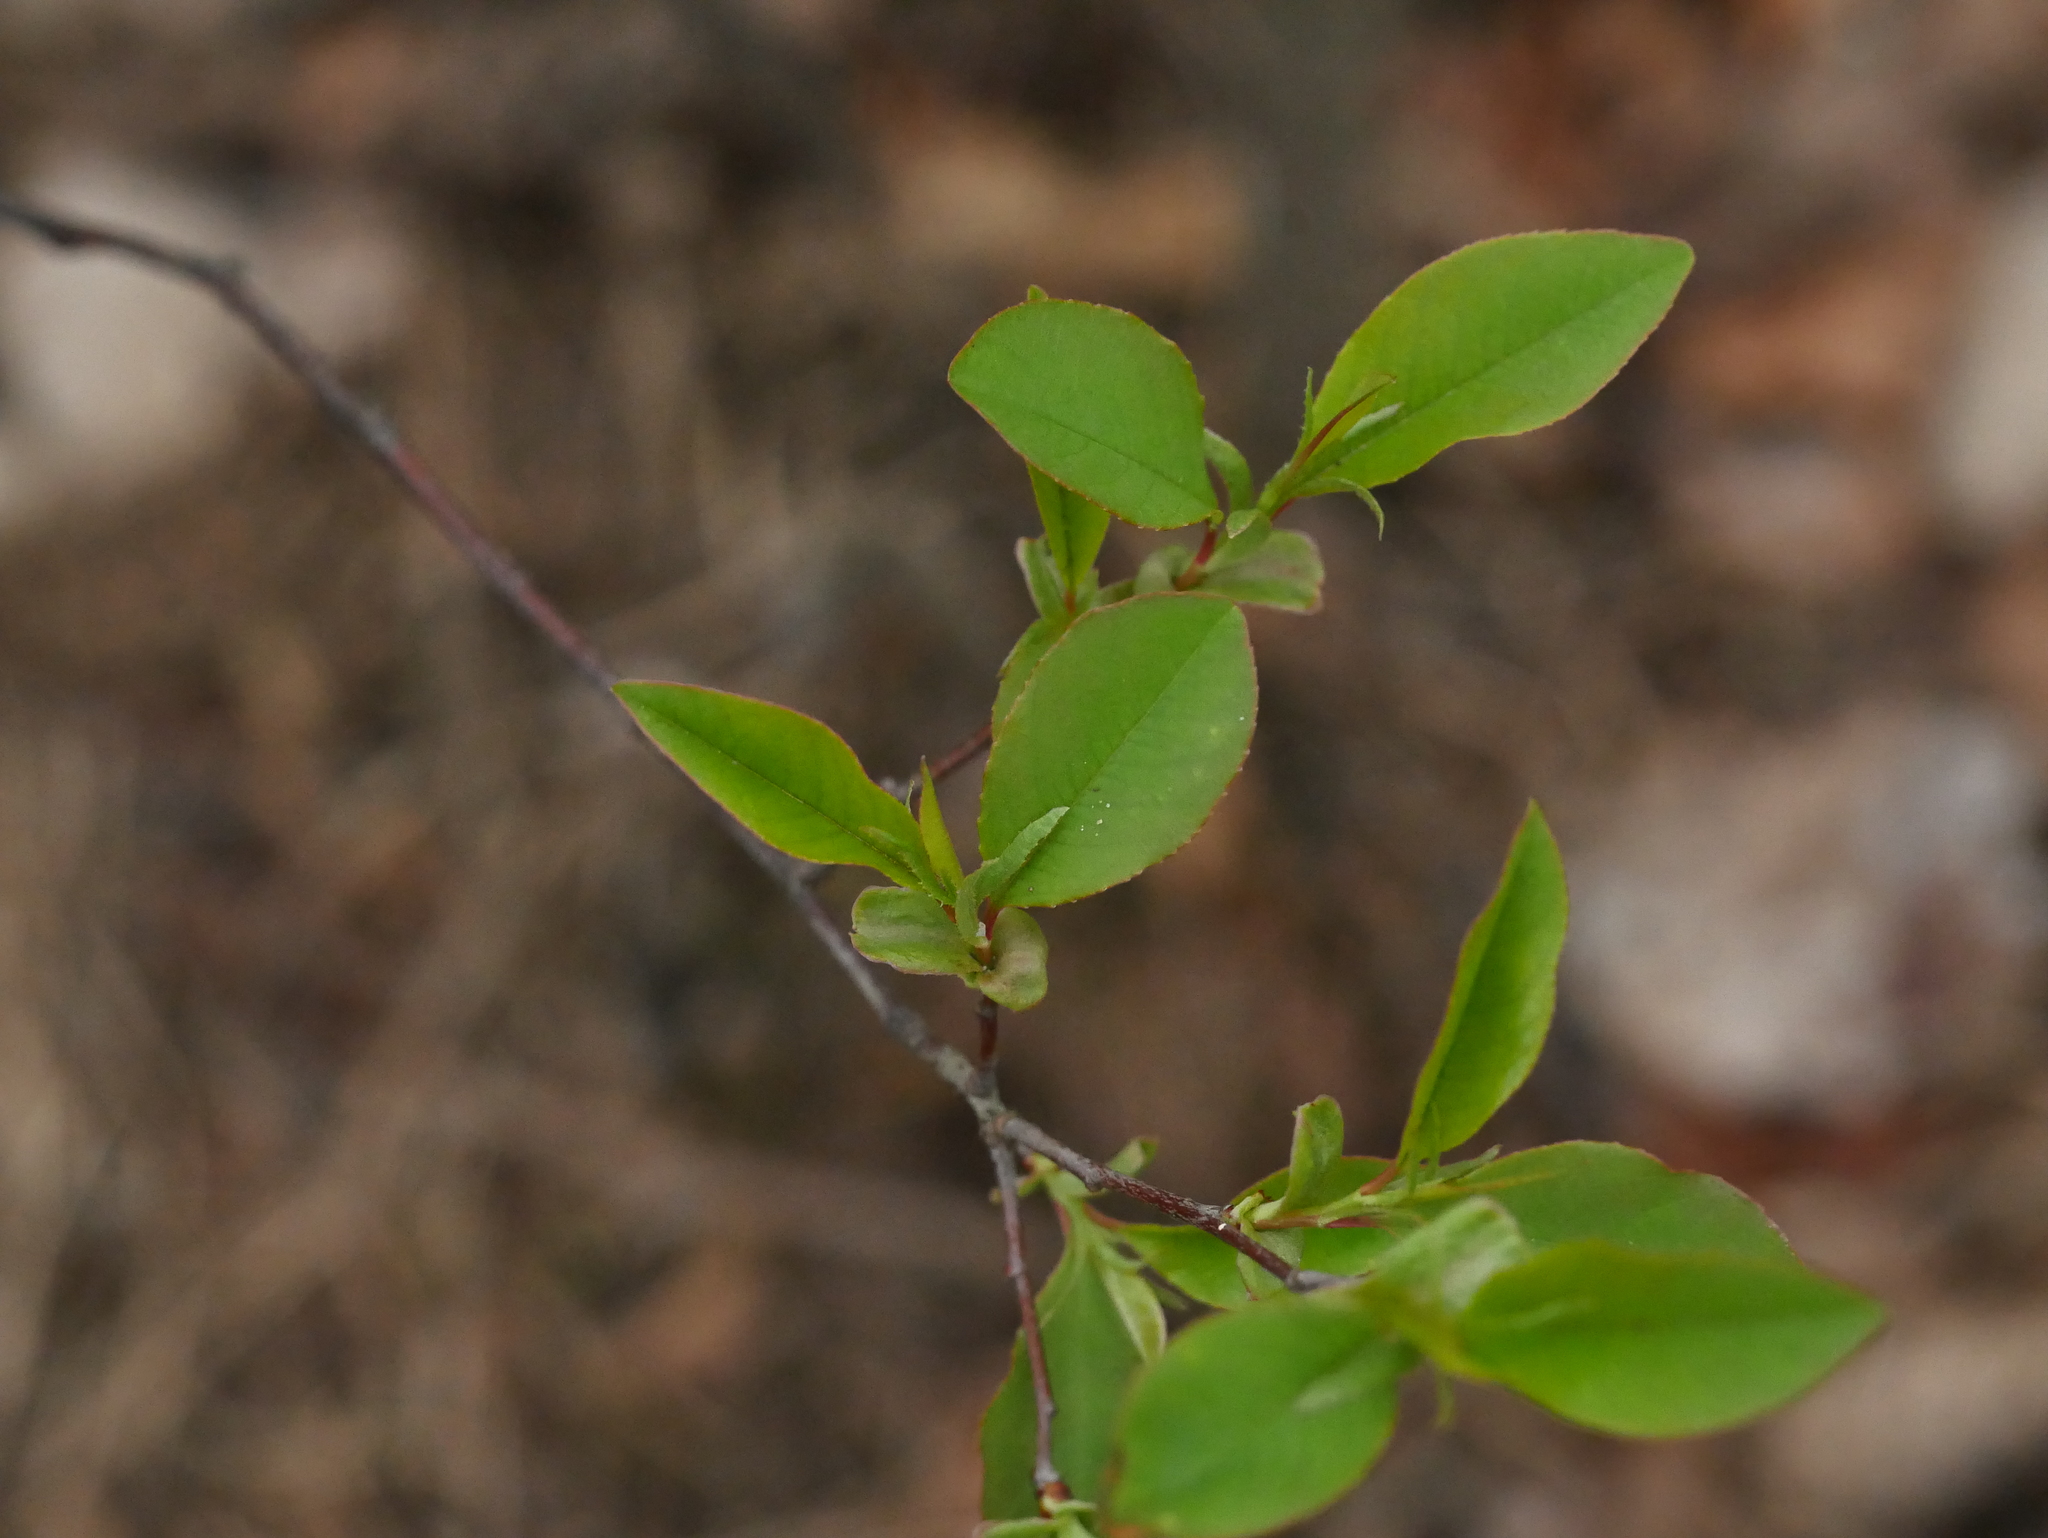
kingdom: Plantae
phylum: Tracheophyta
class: Magnoliopsida
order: Rosales
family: Rosaceae
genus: Prunus
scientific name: Prunus serotina
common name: Black cherry
